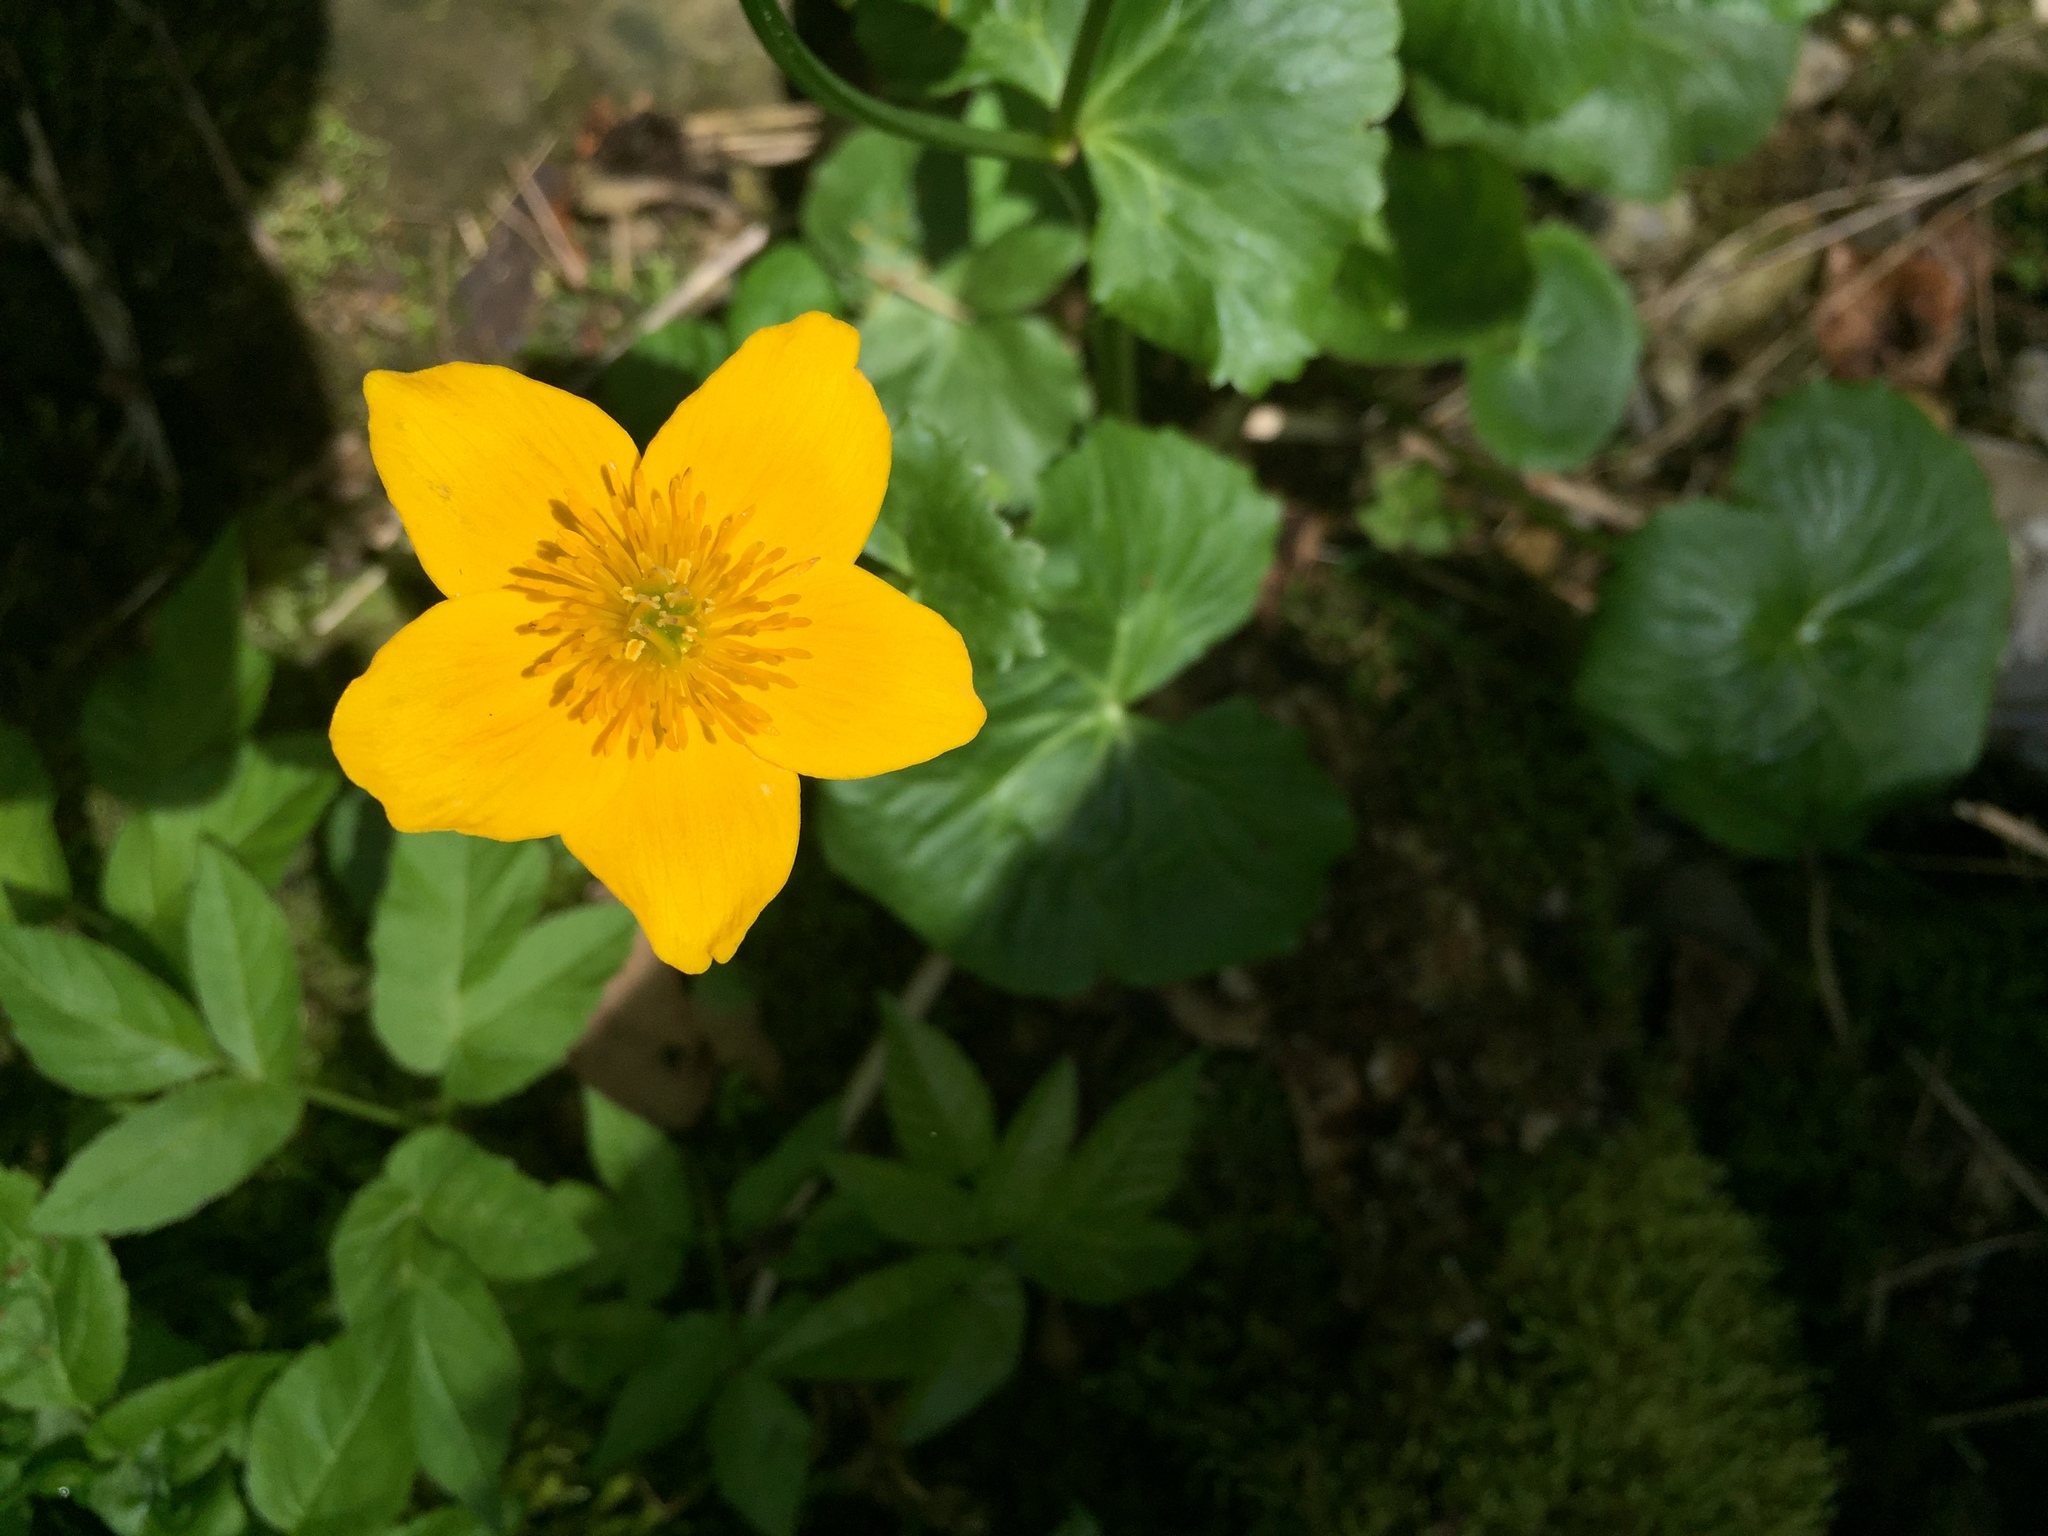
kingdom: Plantae
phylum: Tracheophyta
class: Magnoliopsida
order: Ranunculales
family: Ranunculaceae
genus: Caltha
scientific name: Caltha palustris
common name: Marsh marigold
